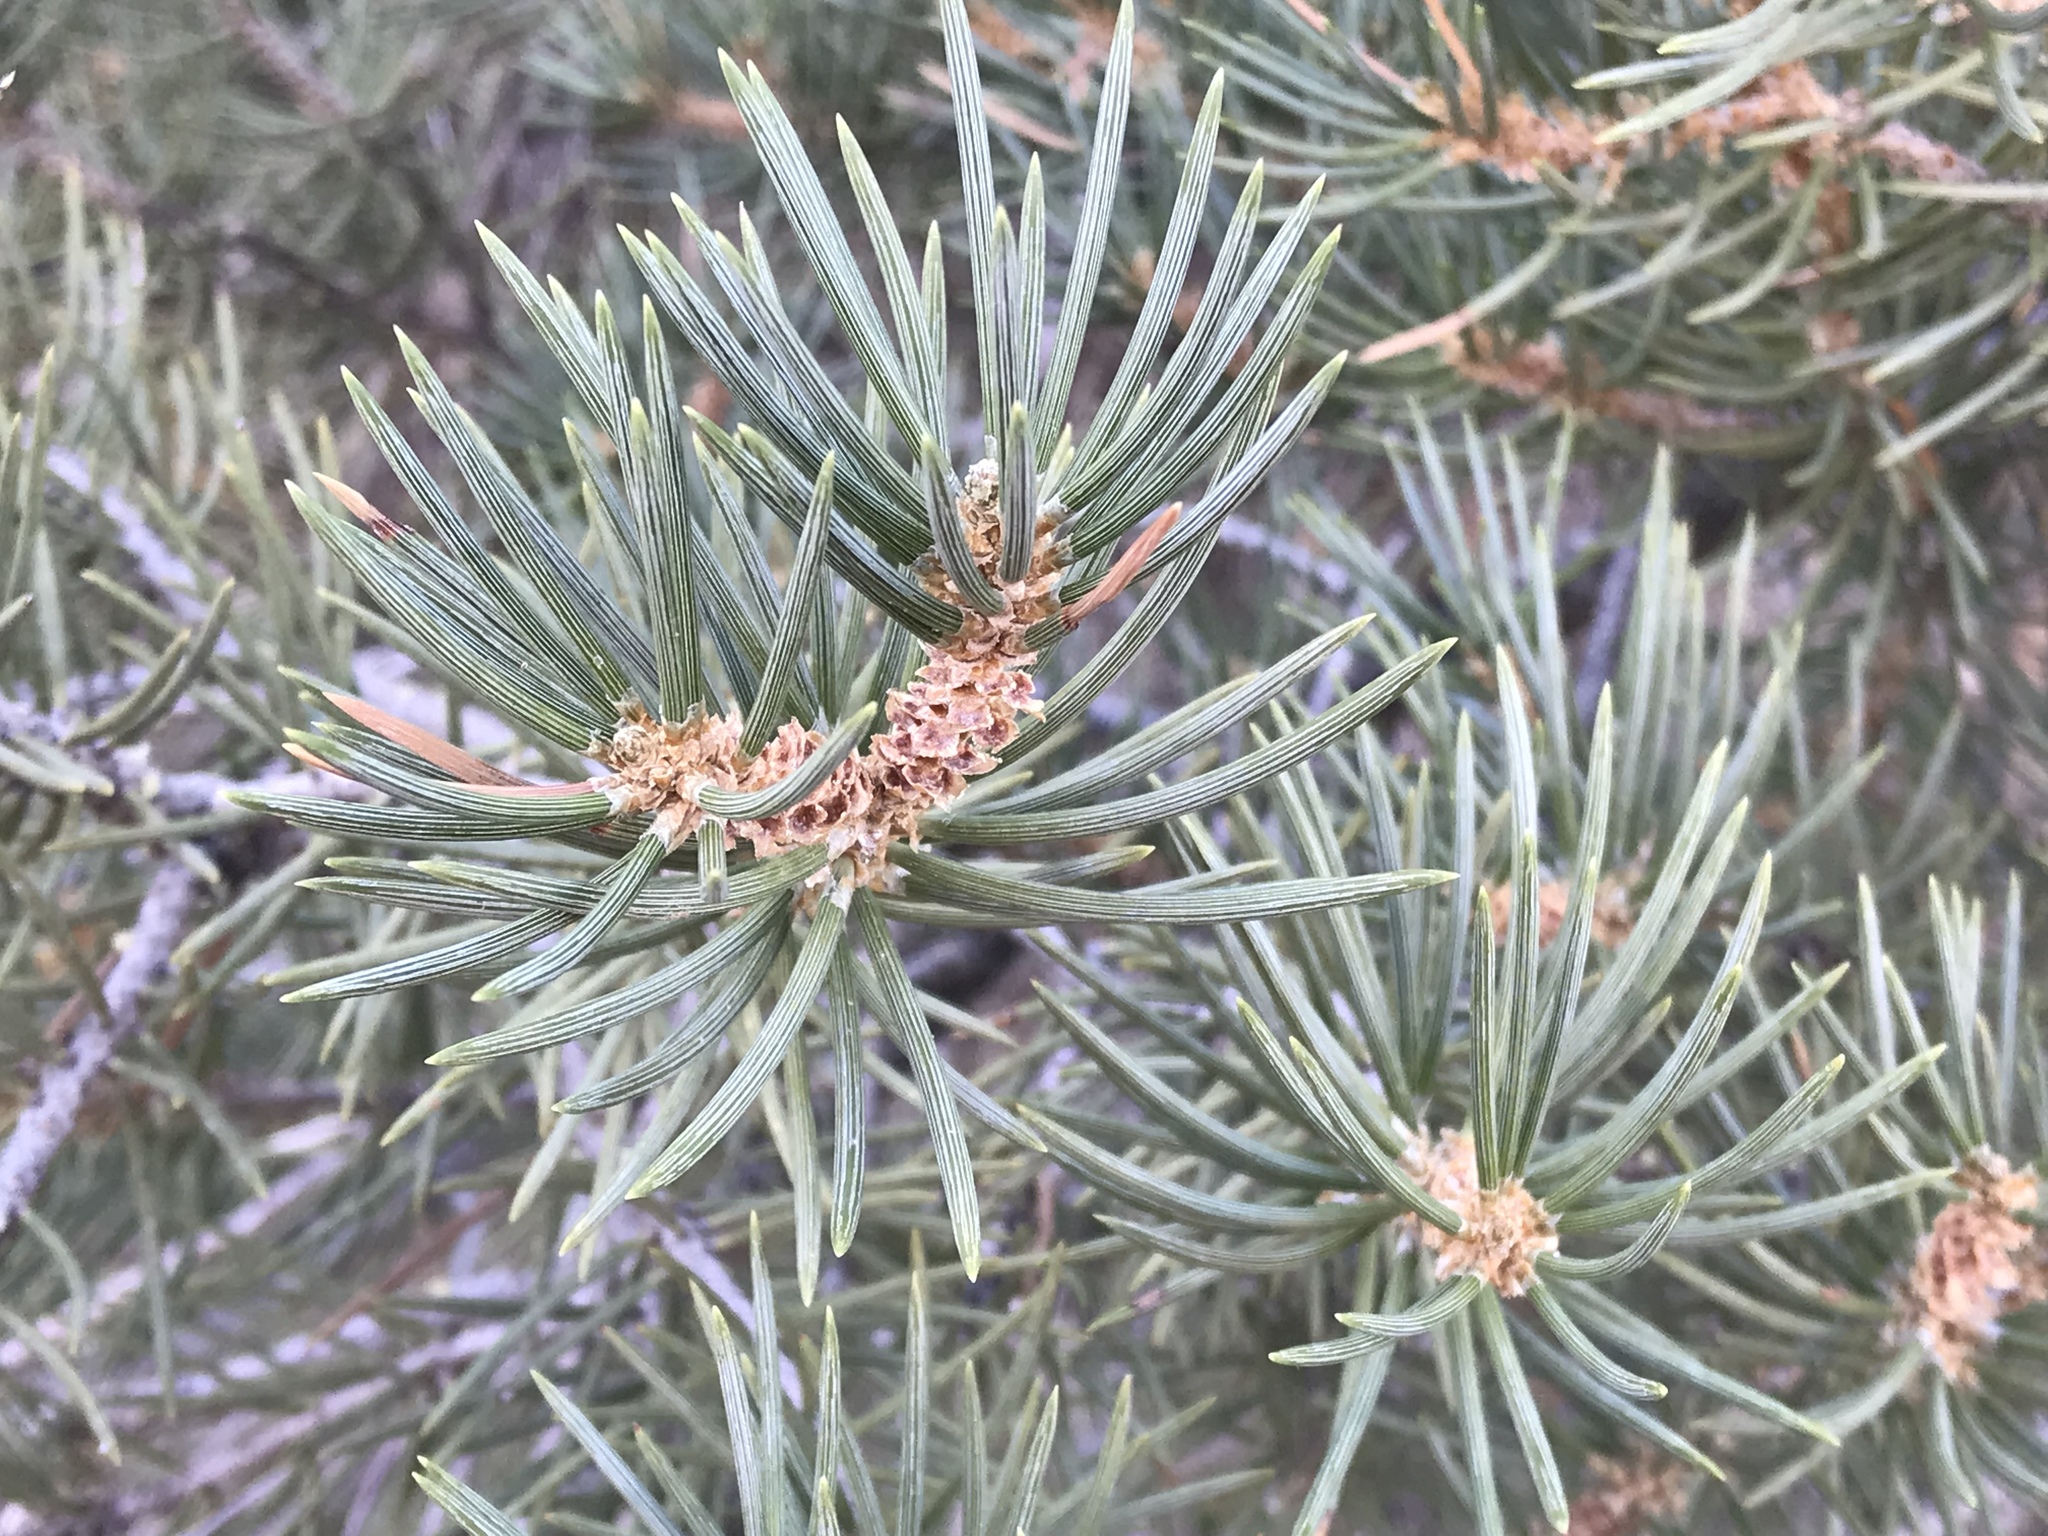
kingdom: Plantae
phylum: Tracheophyta
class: Pinopsida
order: Pinales
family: Pinaceae
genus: Pinus
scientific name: Pinus monophylla
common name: One-leaved nut pine
